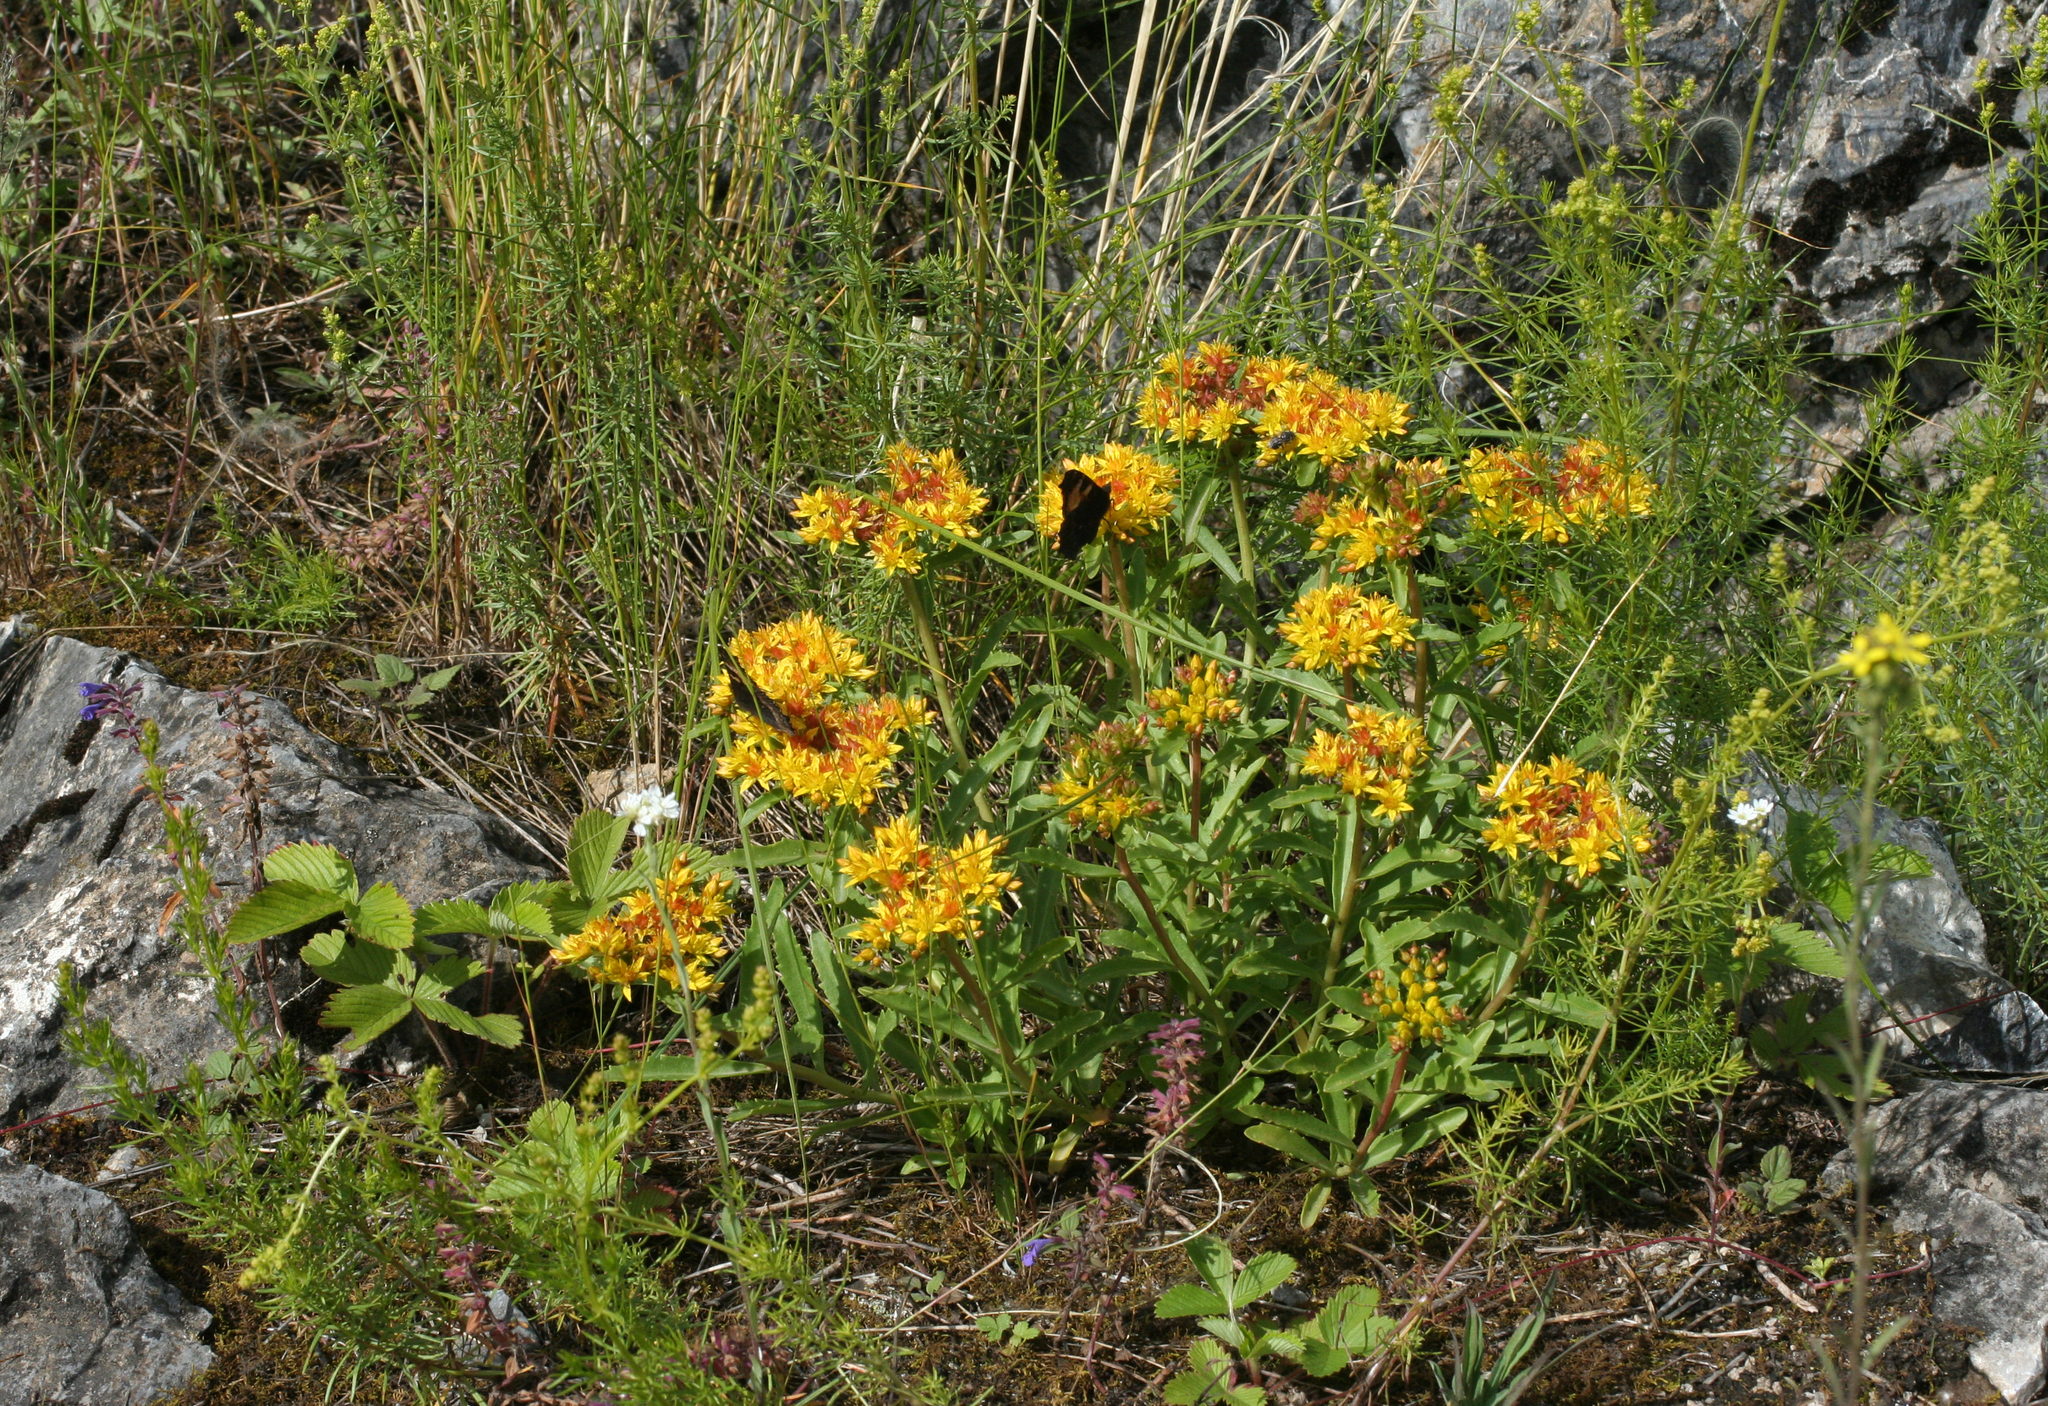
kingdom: Plantae
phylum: Tracheophyta
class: Magnoliopsida
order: Saxifragales
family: Crassulaceae
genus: Phedimus
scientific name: Phedimus aizoon
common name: Orpin aizoon
